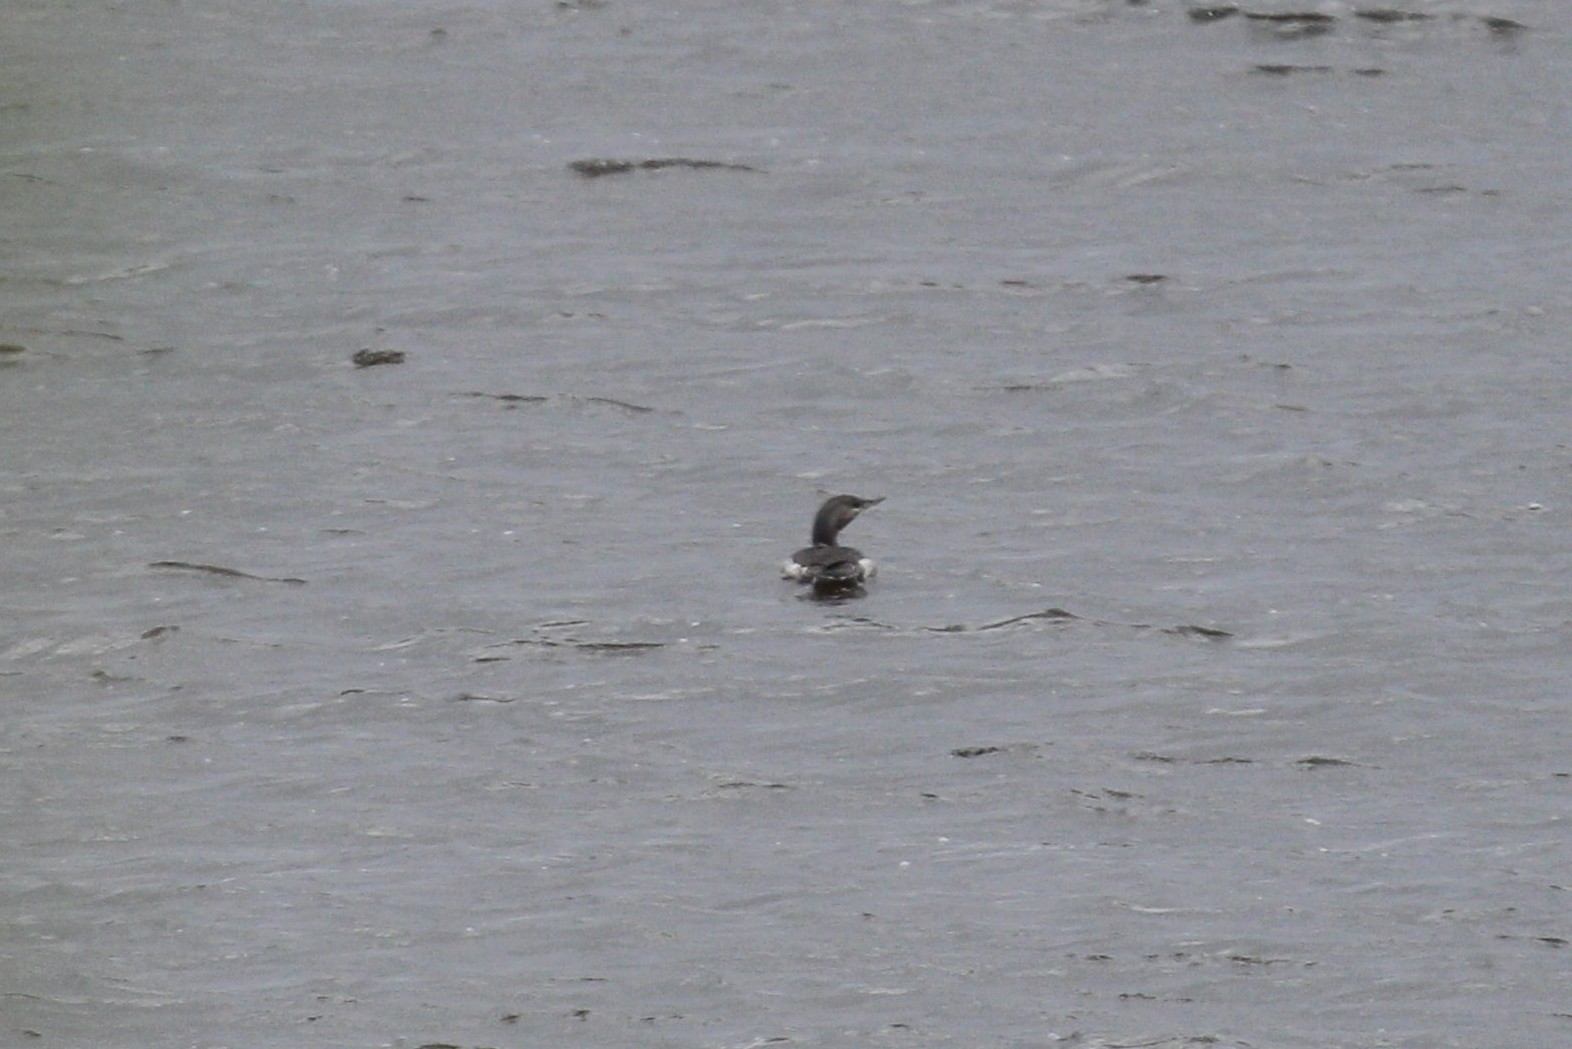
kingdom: Animalia
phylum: Chordata
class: Aves
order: Gaviiformes
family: Gaviidae
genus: Gavia
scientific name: Gavia stellata
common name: Red-throated loon
